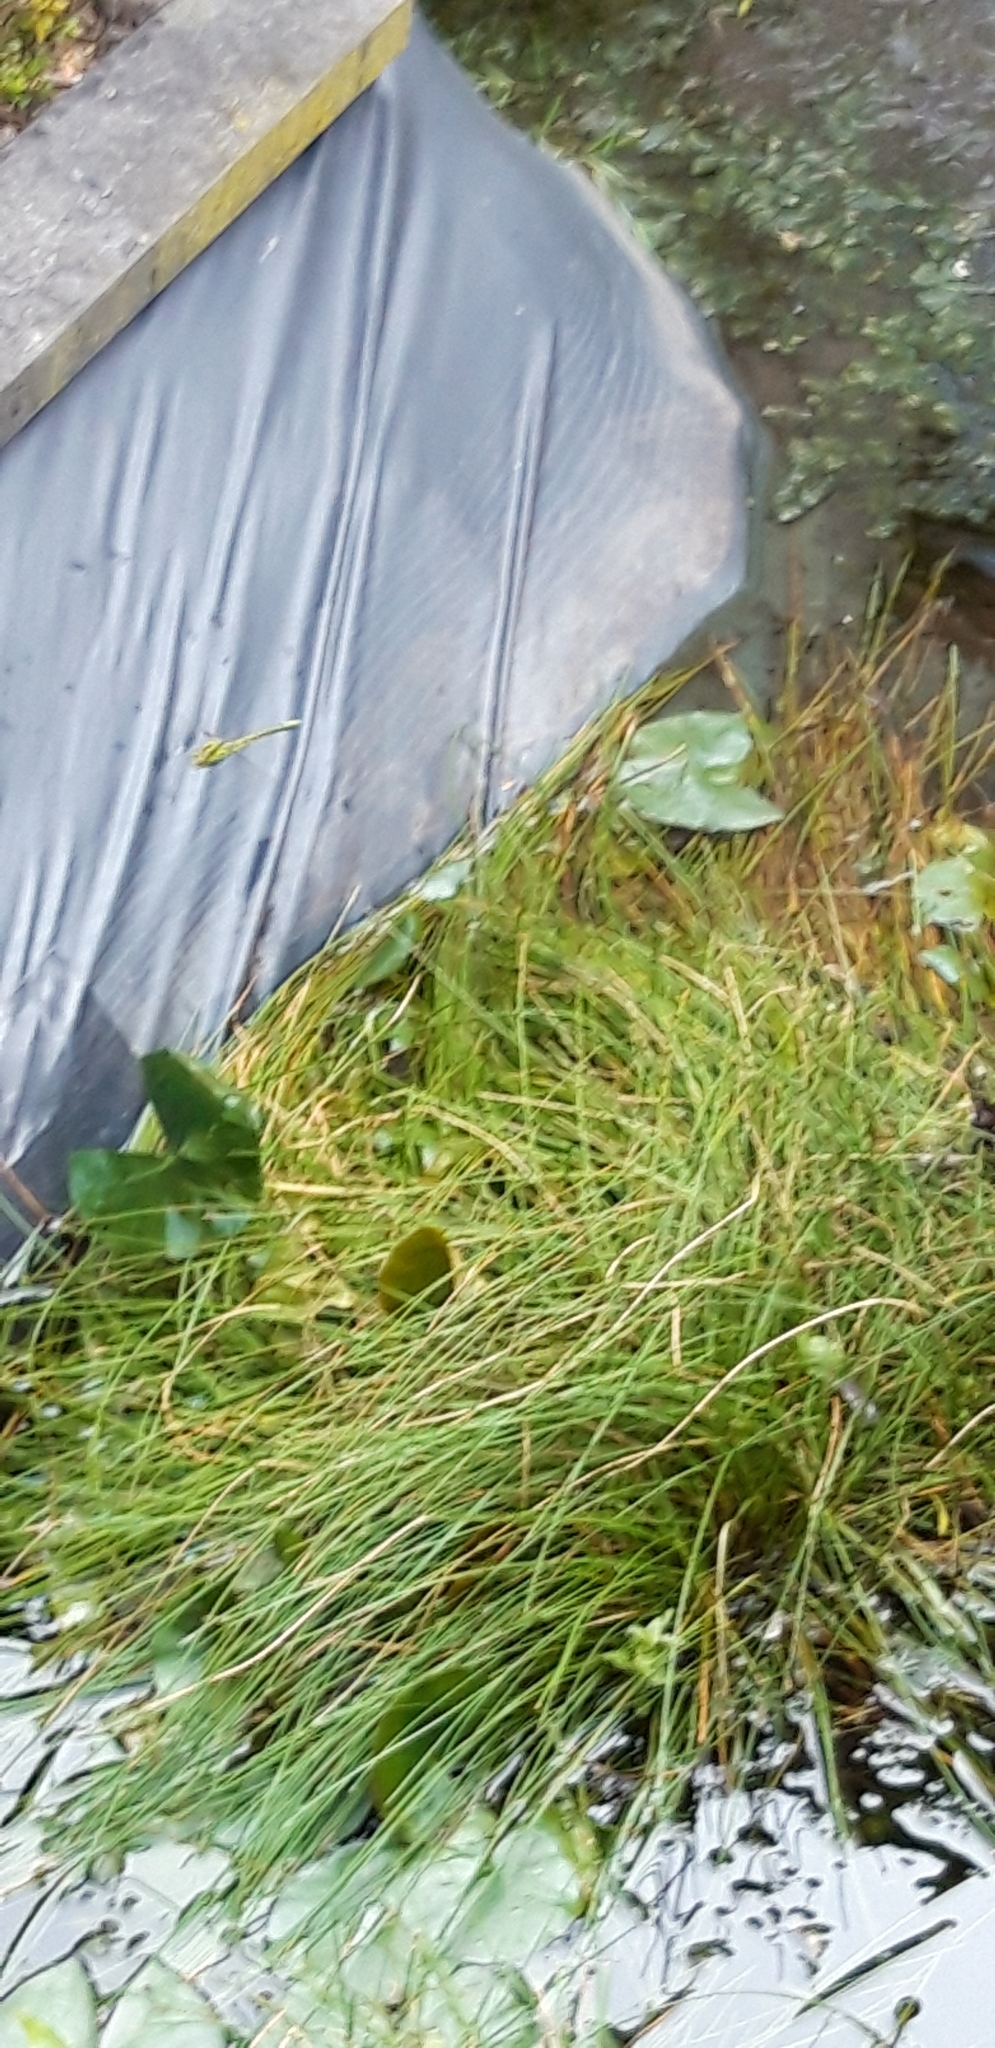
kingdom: Animalia
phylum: Arthropoda
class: Insecta
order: Odonata
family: Aeshnidae
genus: Aeshna
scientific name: Aeshna cyanea
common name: Southern hawker
